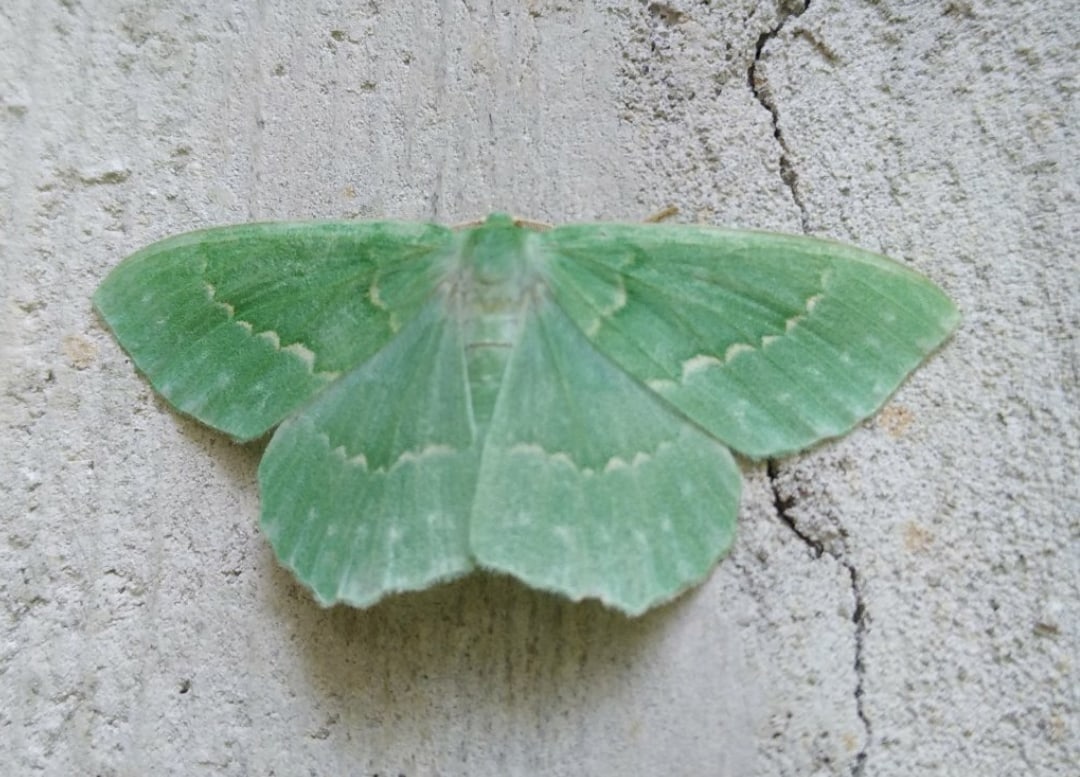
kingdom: Animalia
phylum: Arthropoda
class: Insecta
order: Lepidoptera
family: Geometridae
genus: Geometra
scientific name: Geometra papilionaria
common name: Large emerald
